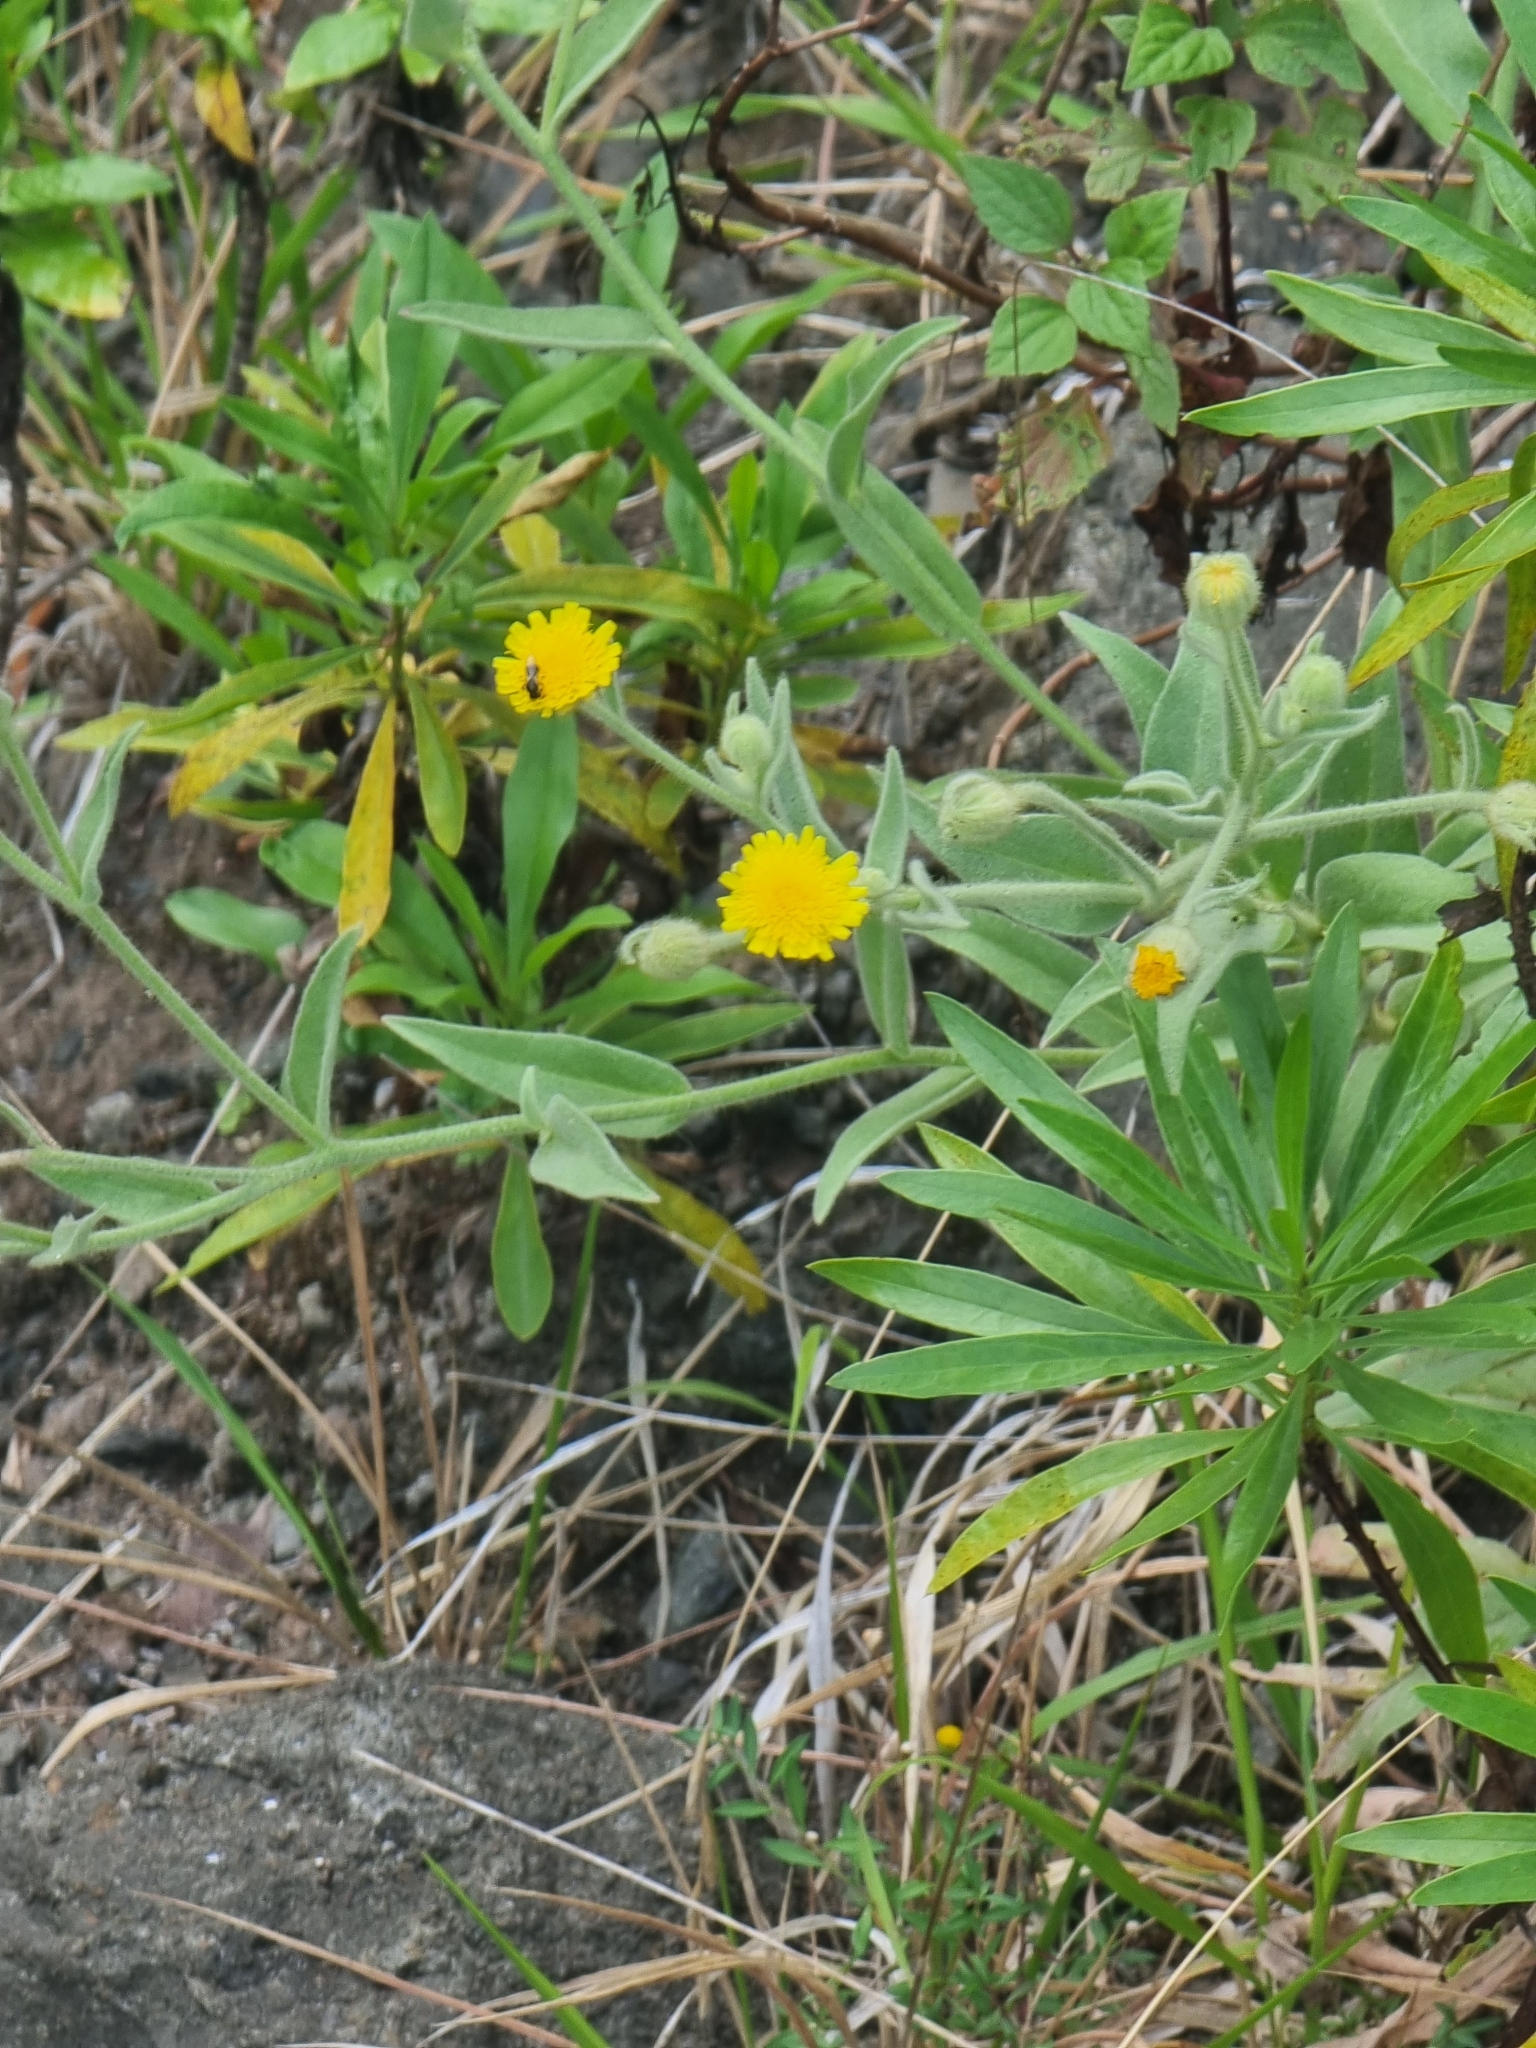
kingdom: Plantae
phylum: Tracheophyta
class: Magnoliopsida
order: Asterales
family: Asteraceae
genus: Andryala
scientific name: Andryala glandulosa
